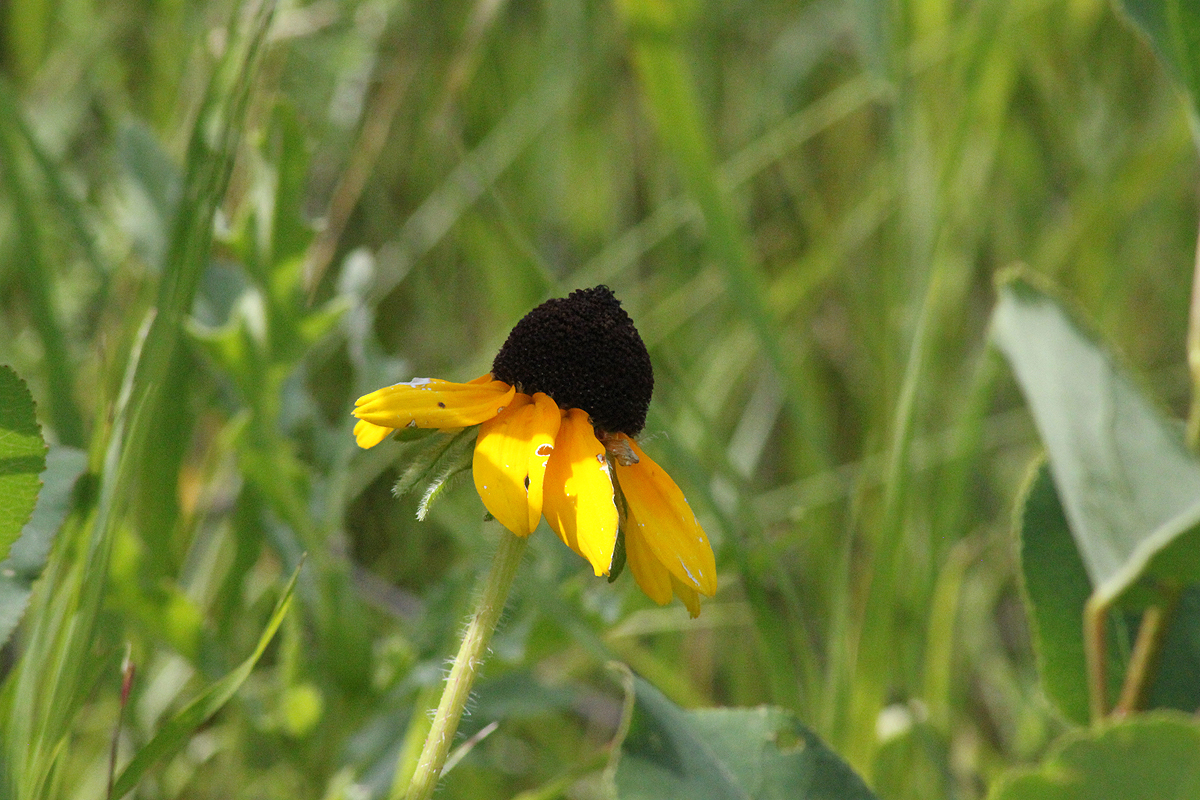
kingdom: Plantae
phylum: Tracheophyta
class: Magnoliopsida
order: Asterales
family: Asteraceae
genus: Rudbeckia
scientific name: Rudbeckia hirta
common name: Black-eyed-susan
